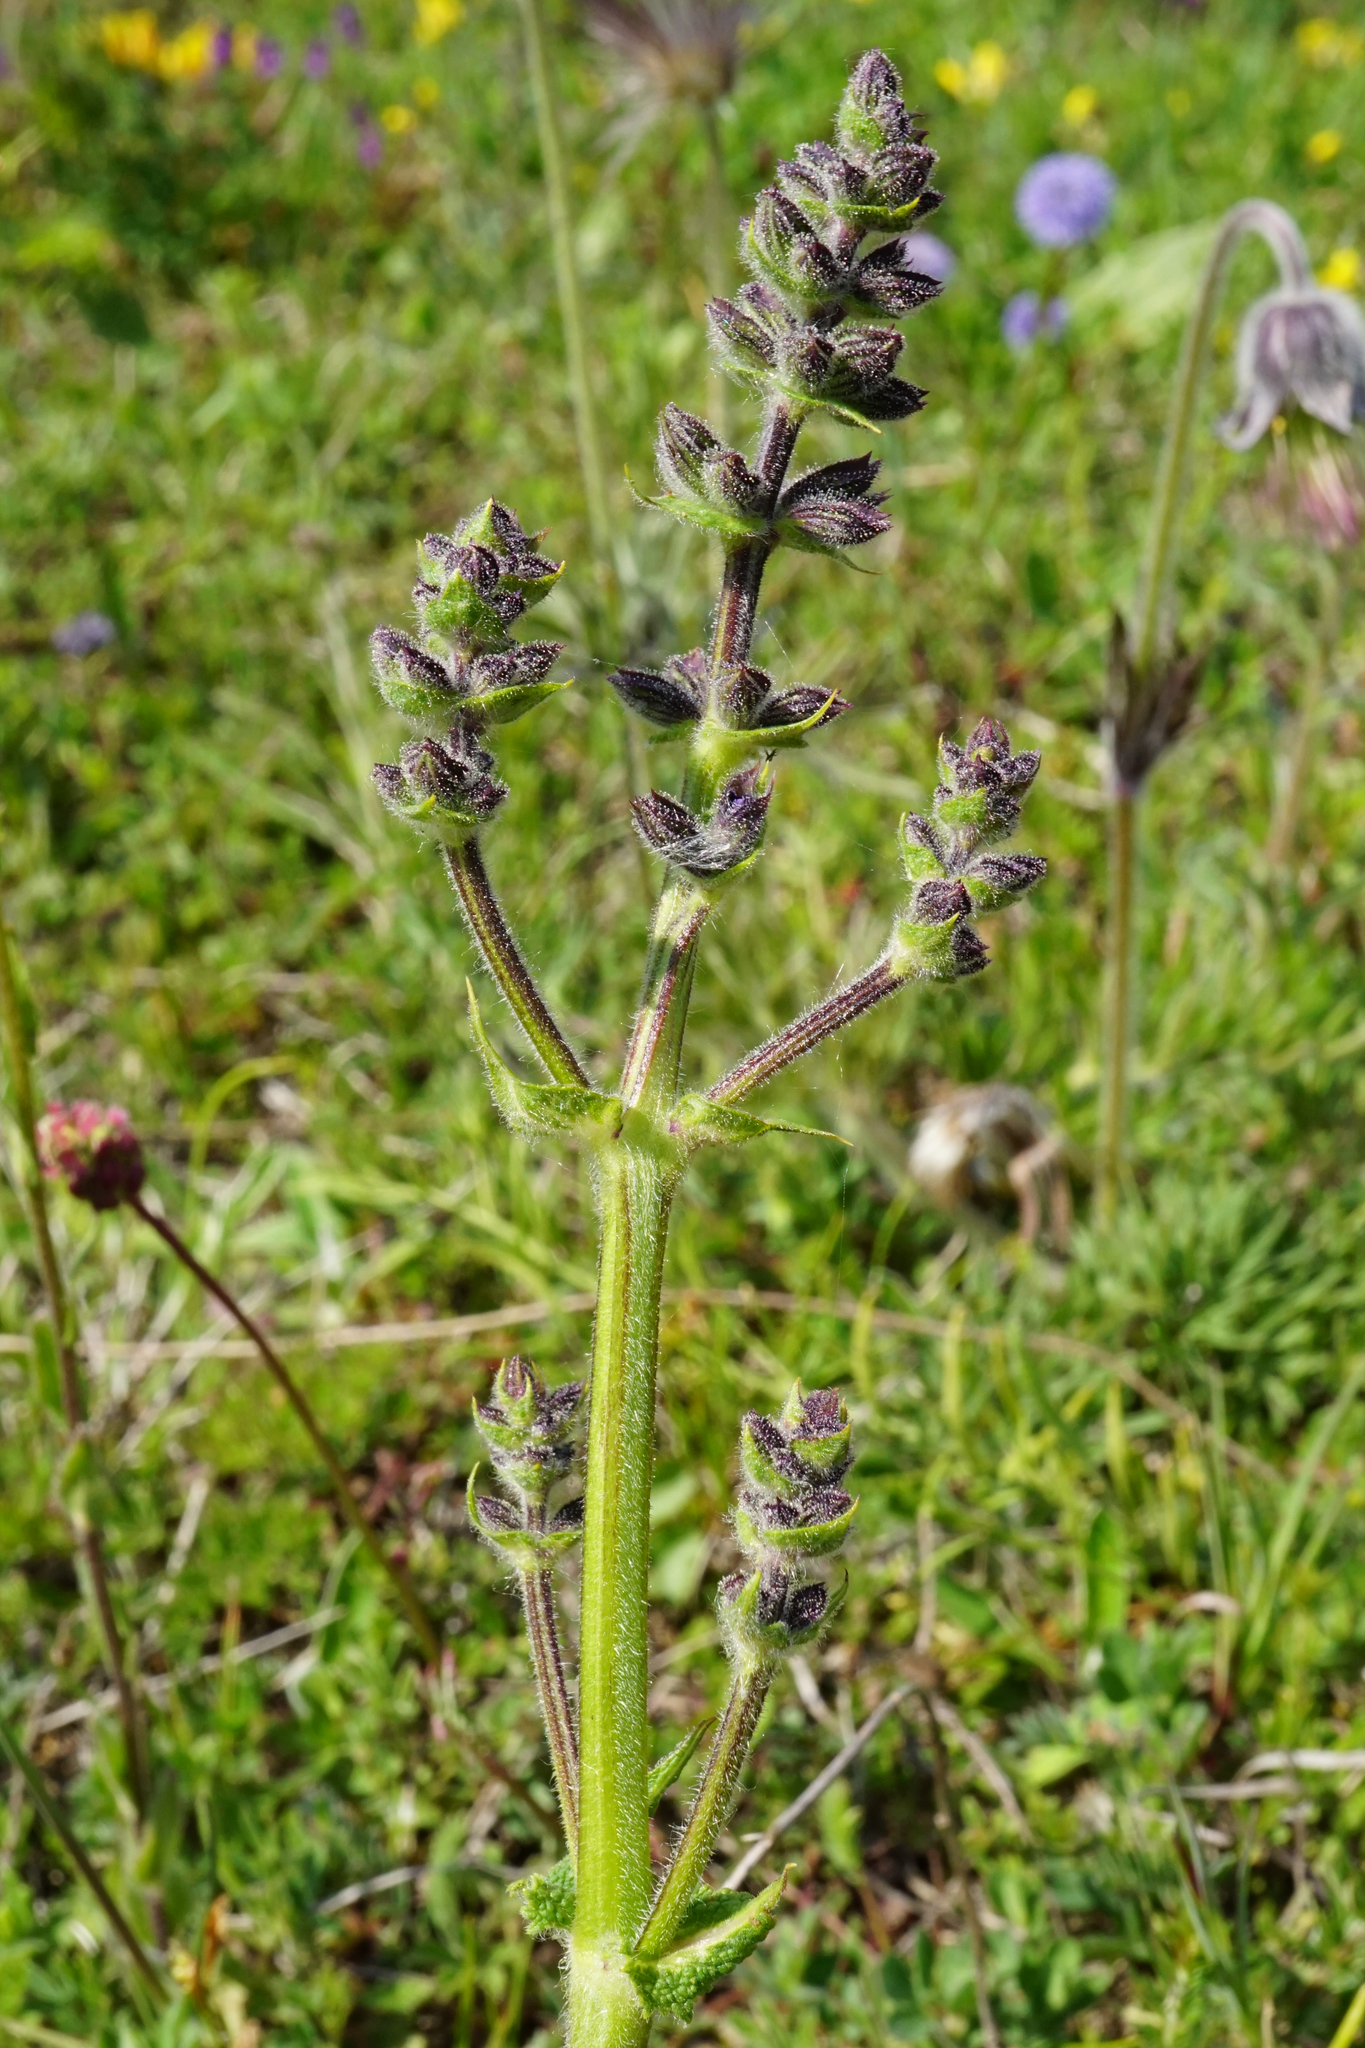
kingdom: Plantae
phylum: Tracheophyta
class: Magnoliopsida
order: Lamiales
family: Lamiaceae
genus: Salvia
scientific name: Salvia pratensis
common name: Meadow sage
